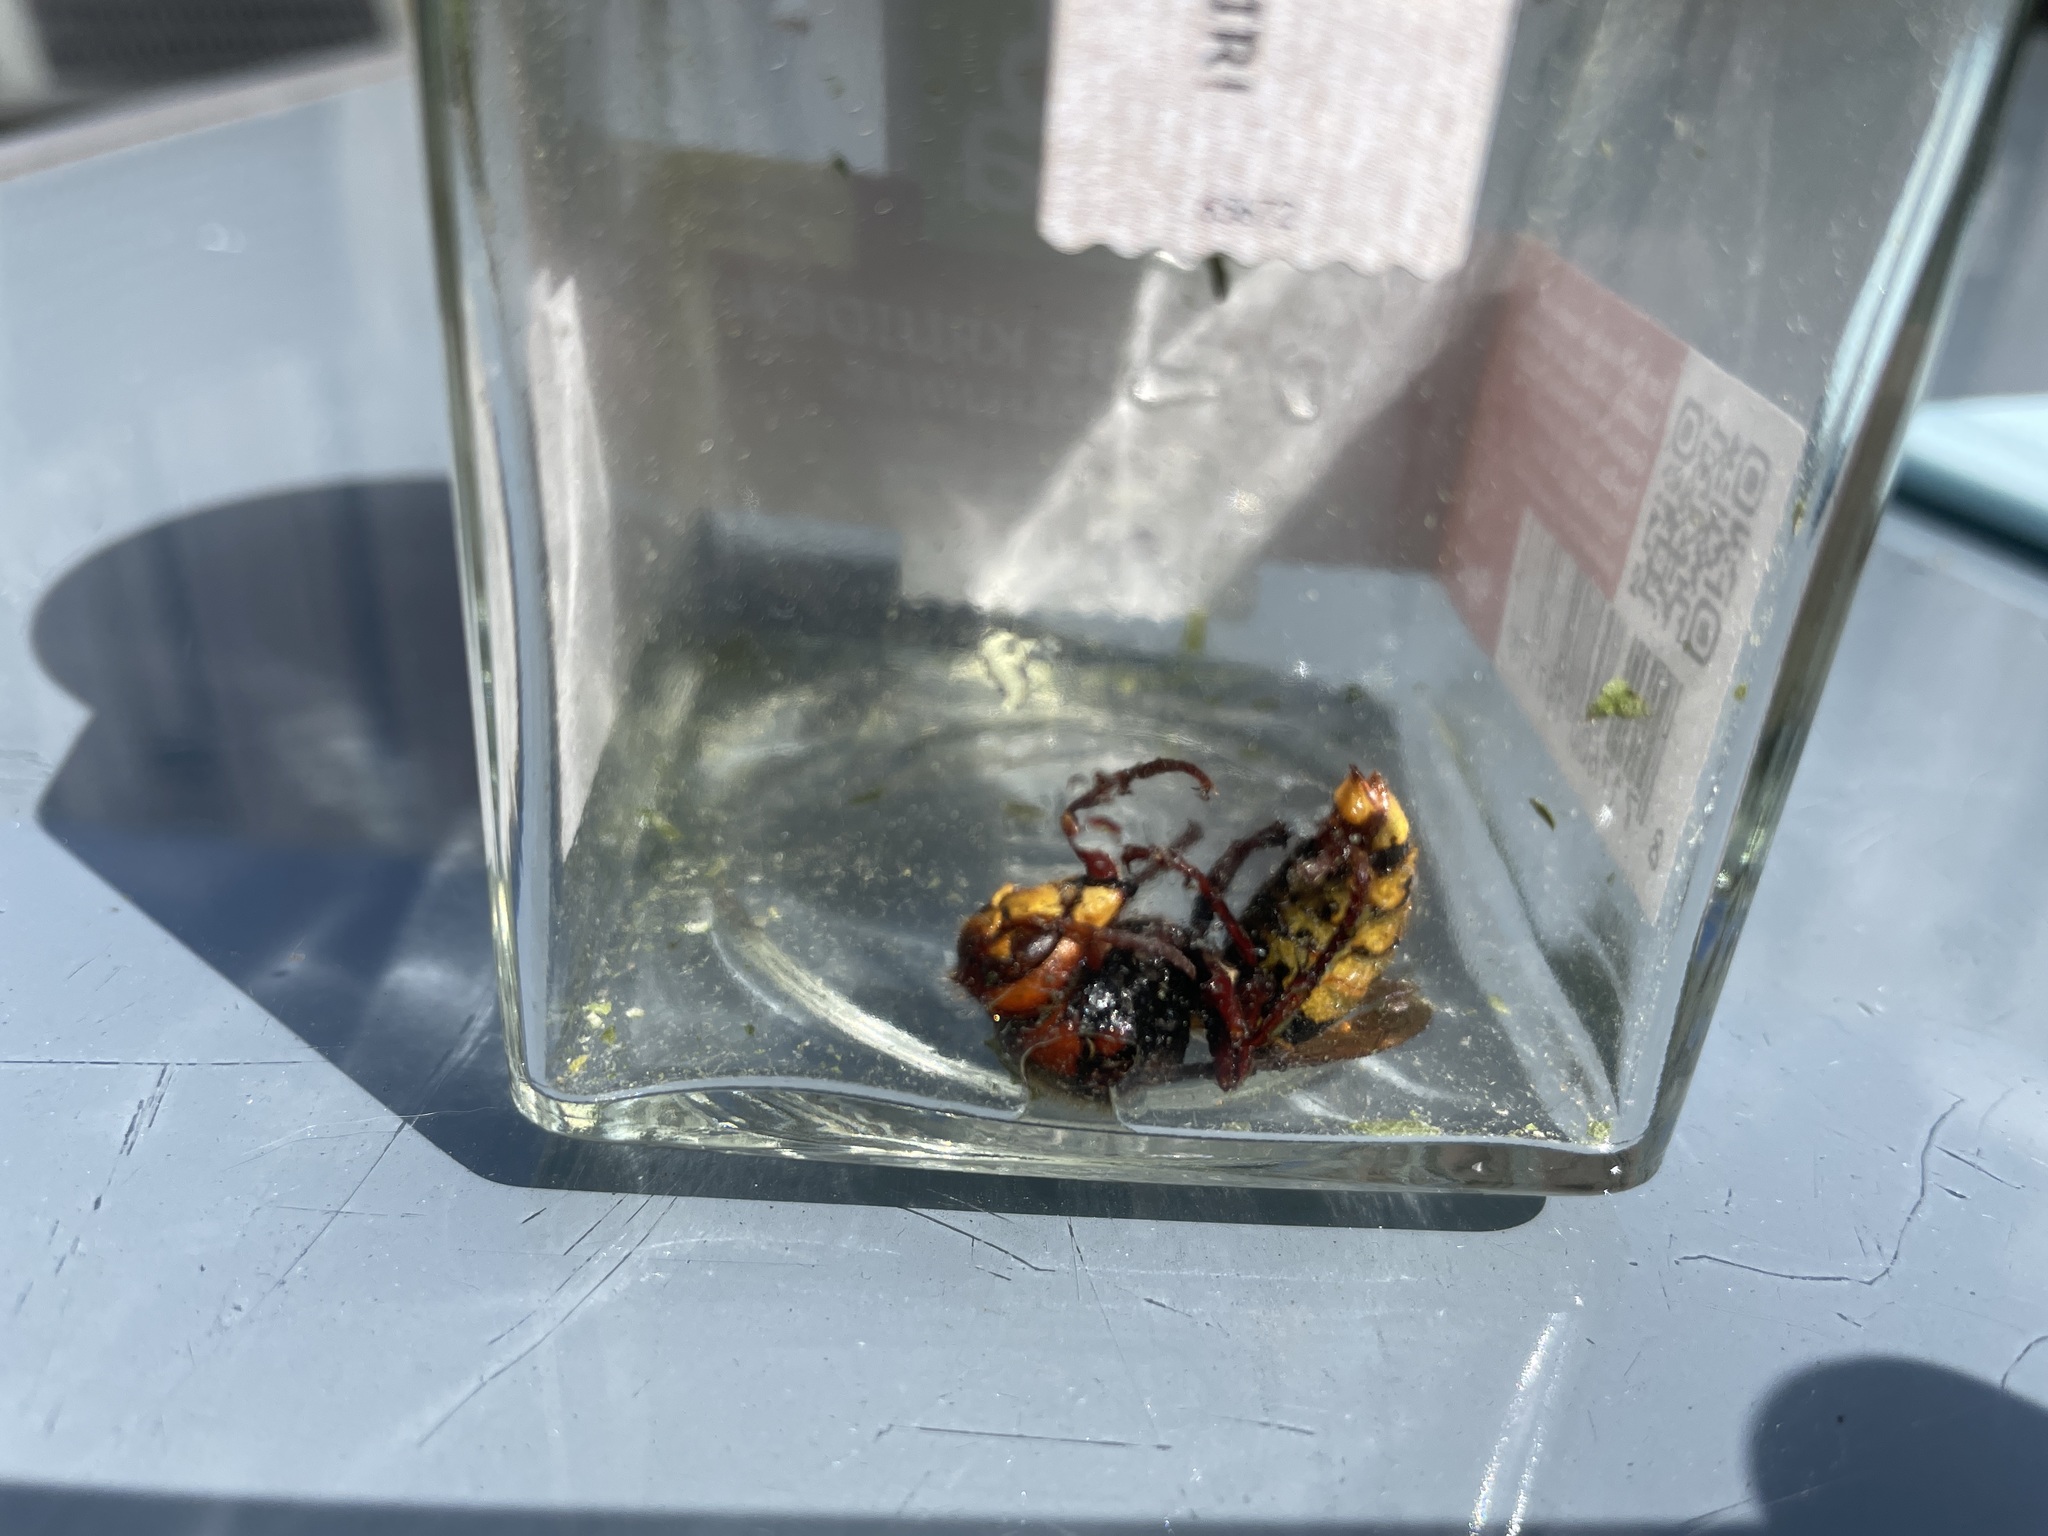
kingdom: Animalia
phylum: Arthropoda
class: Insecta
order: Hymenoptera
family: Vespidae
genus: Vespa
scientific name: Vespa crabro
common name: Hornet
